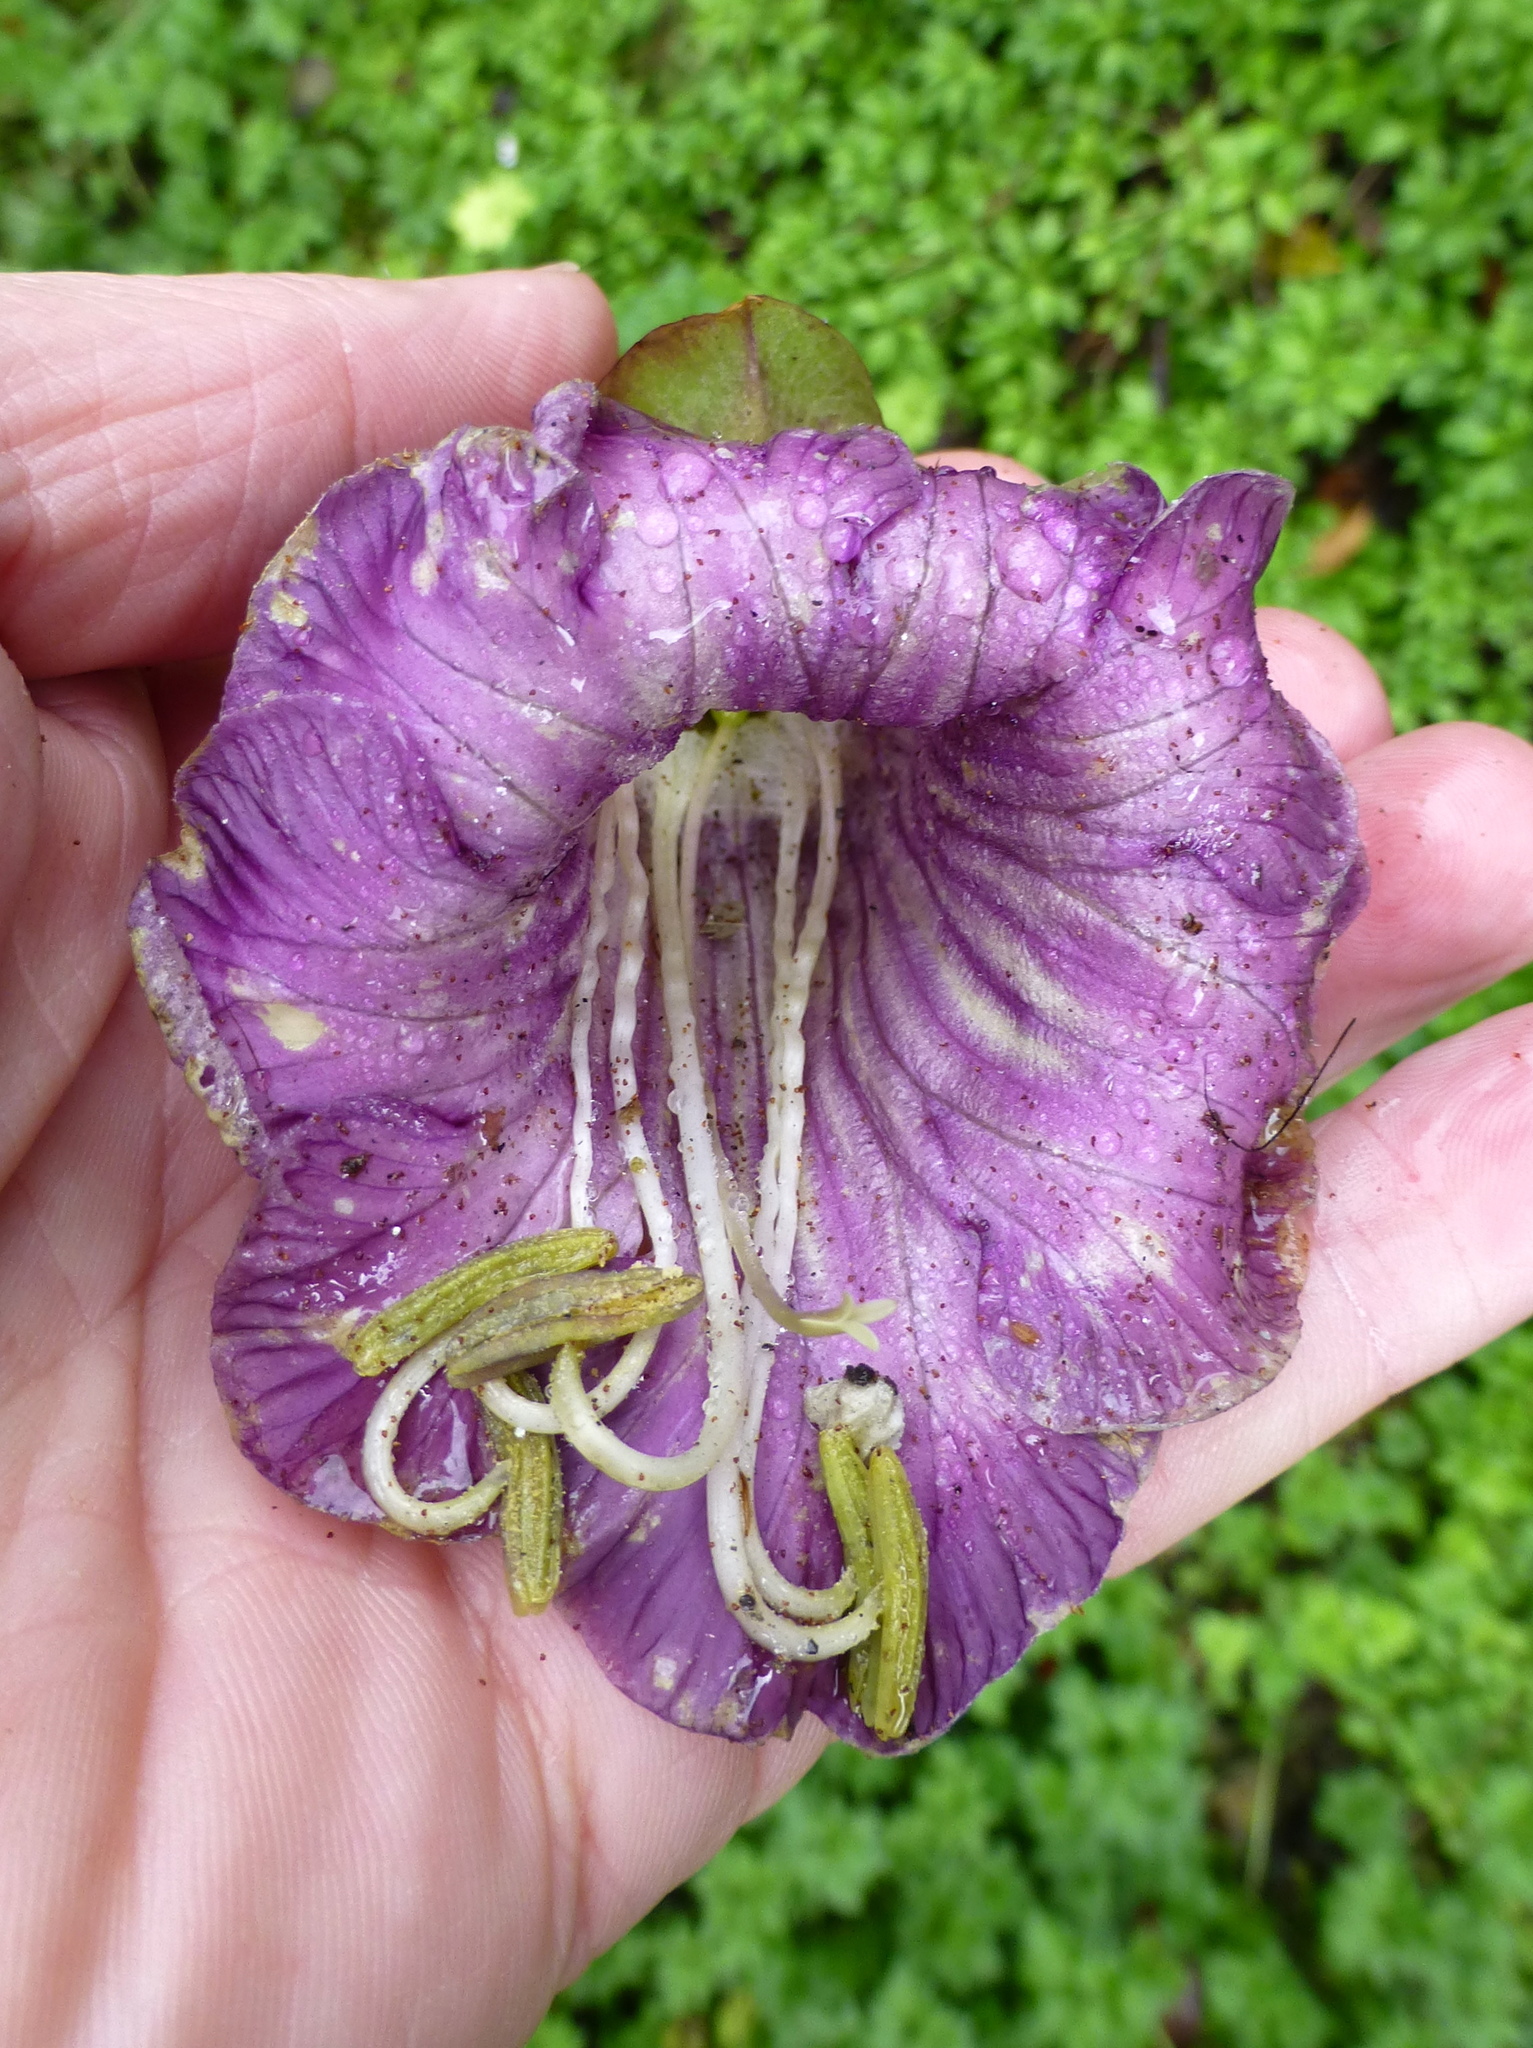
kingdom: Plantae
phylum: Tracheophyta
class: Magnoliopsida
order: Ericales
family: Polemoniaceae
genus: Cobaea
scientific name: Cobaea scandens
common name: Cup-and-saucer-vine
